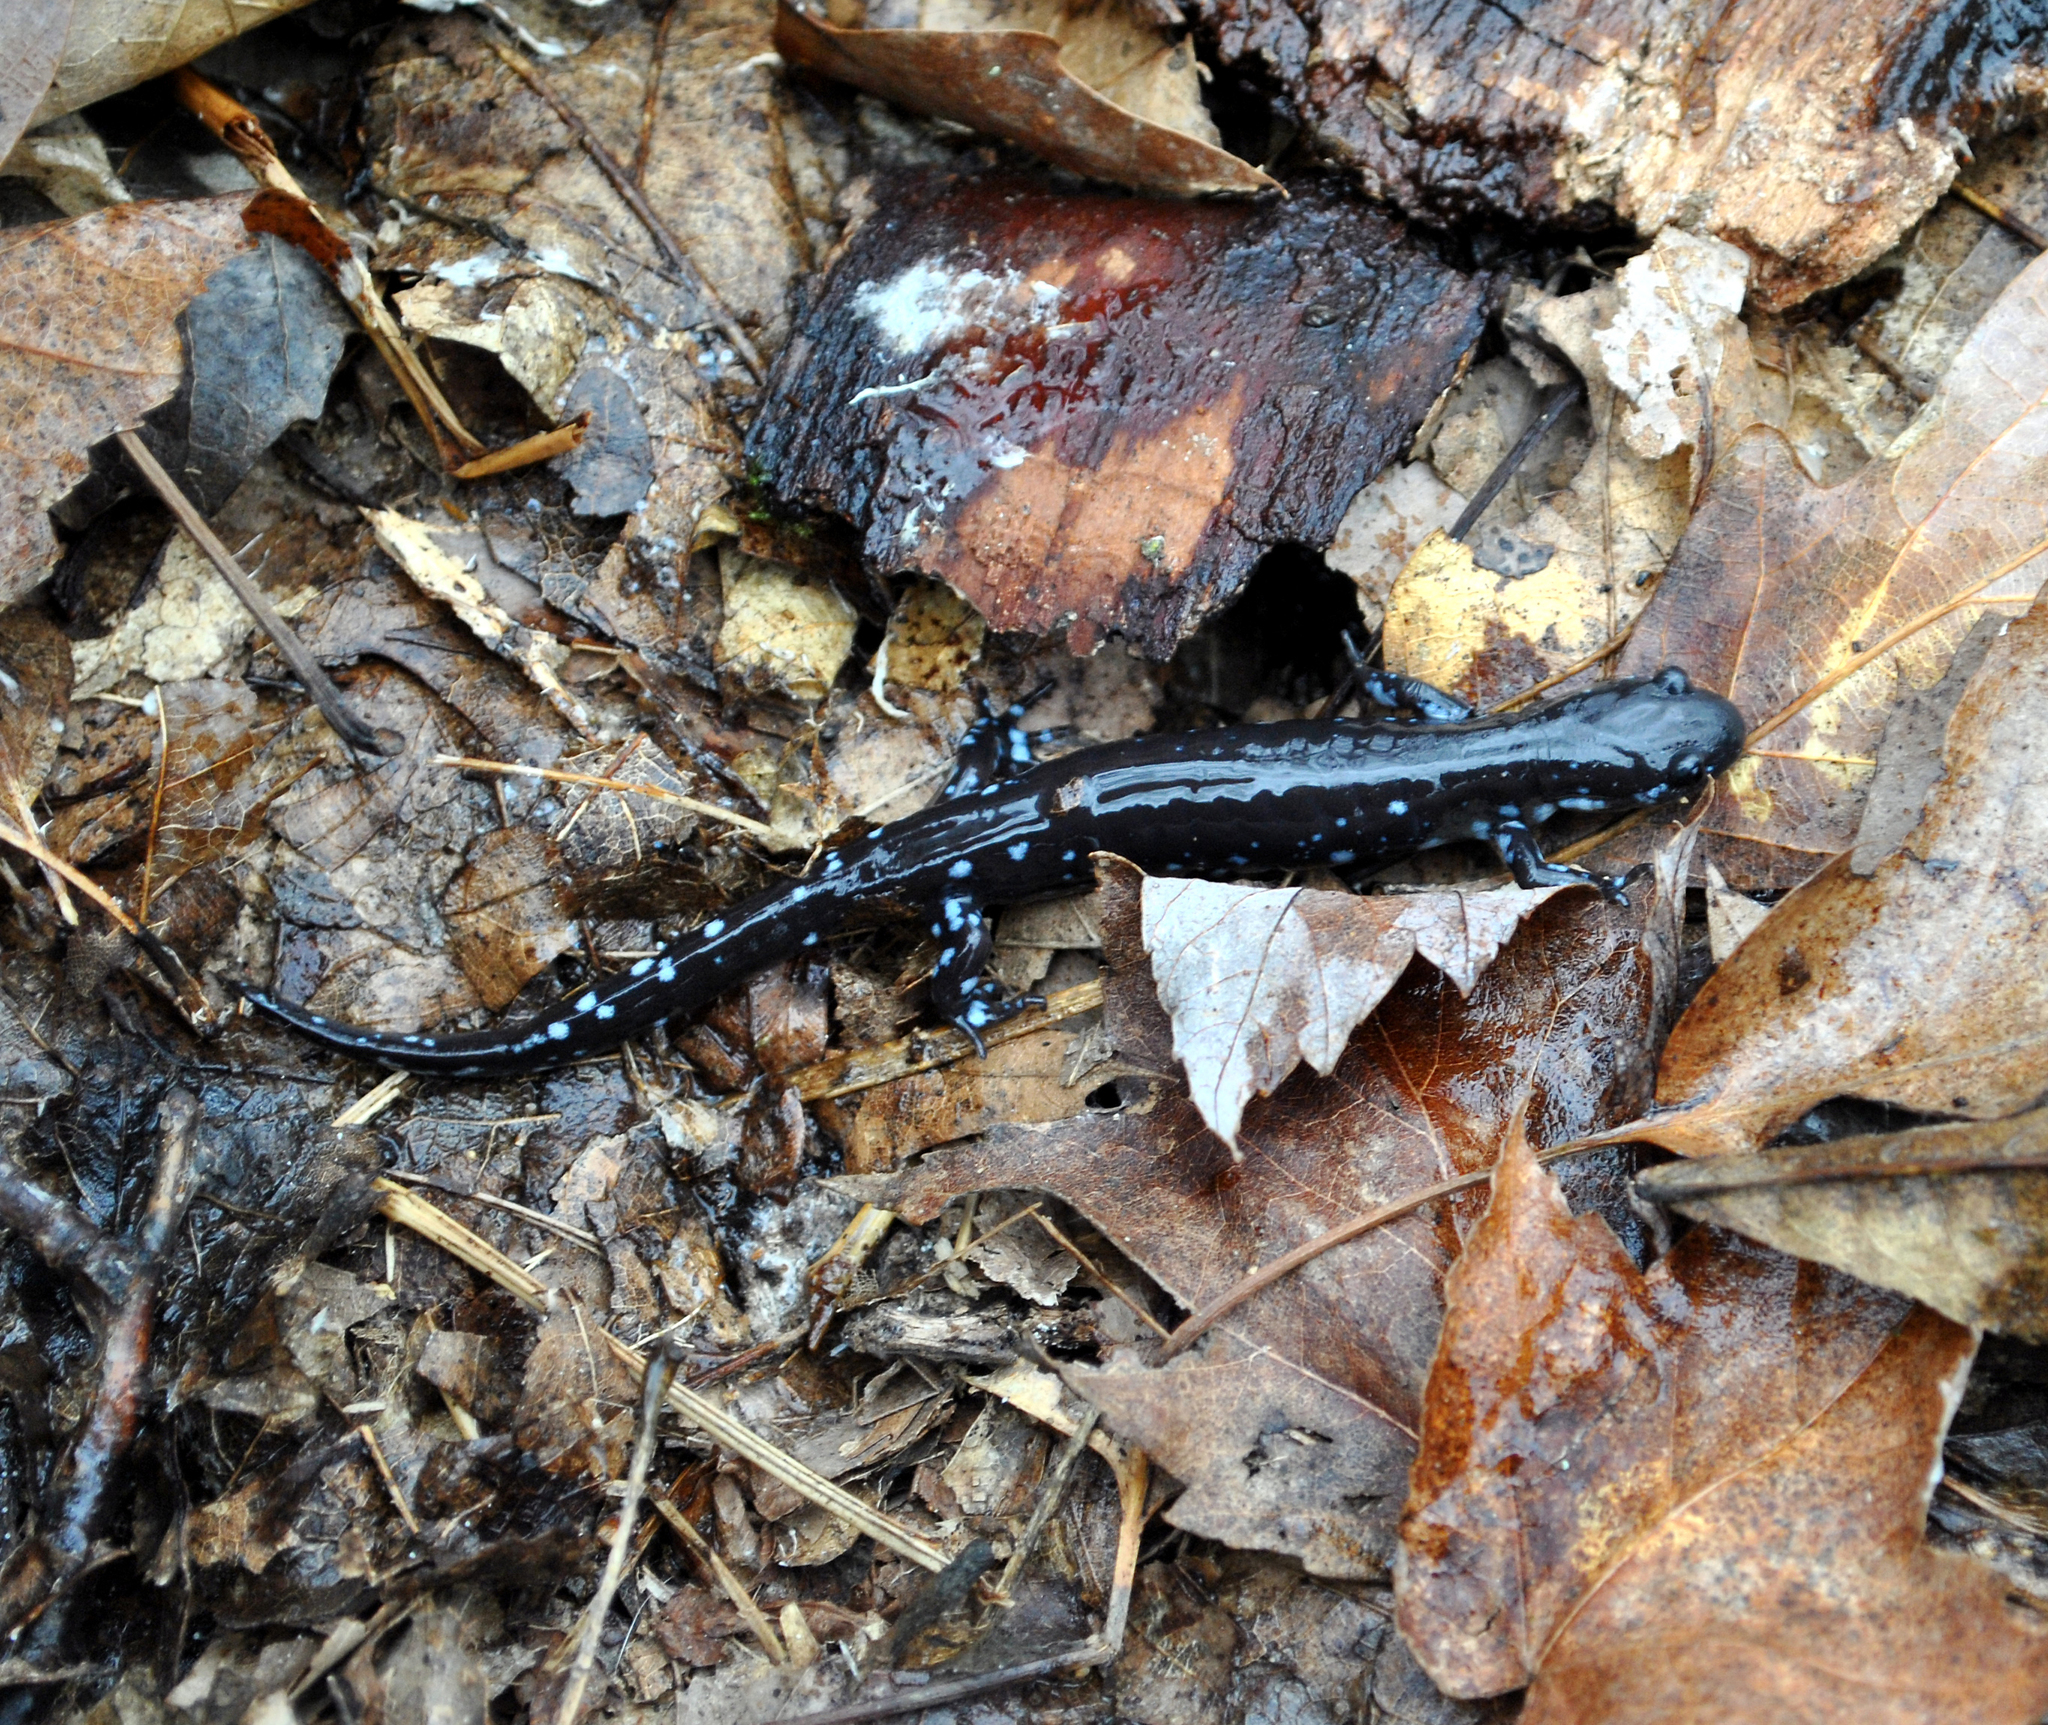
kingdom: Animalia
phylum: Chordata
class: Amphibia
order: Caudata
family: Ambystomatidae
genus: Ambystoma
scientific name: Ambystoma laterale
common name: Blue-spotted salamander
